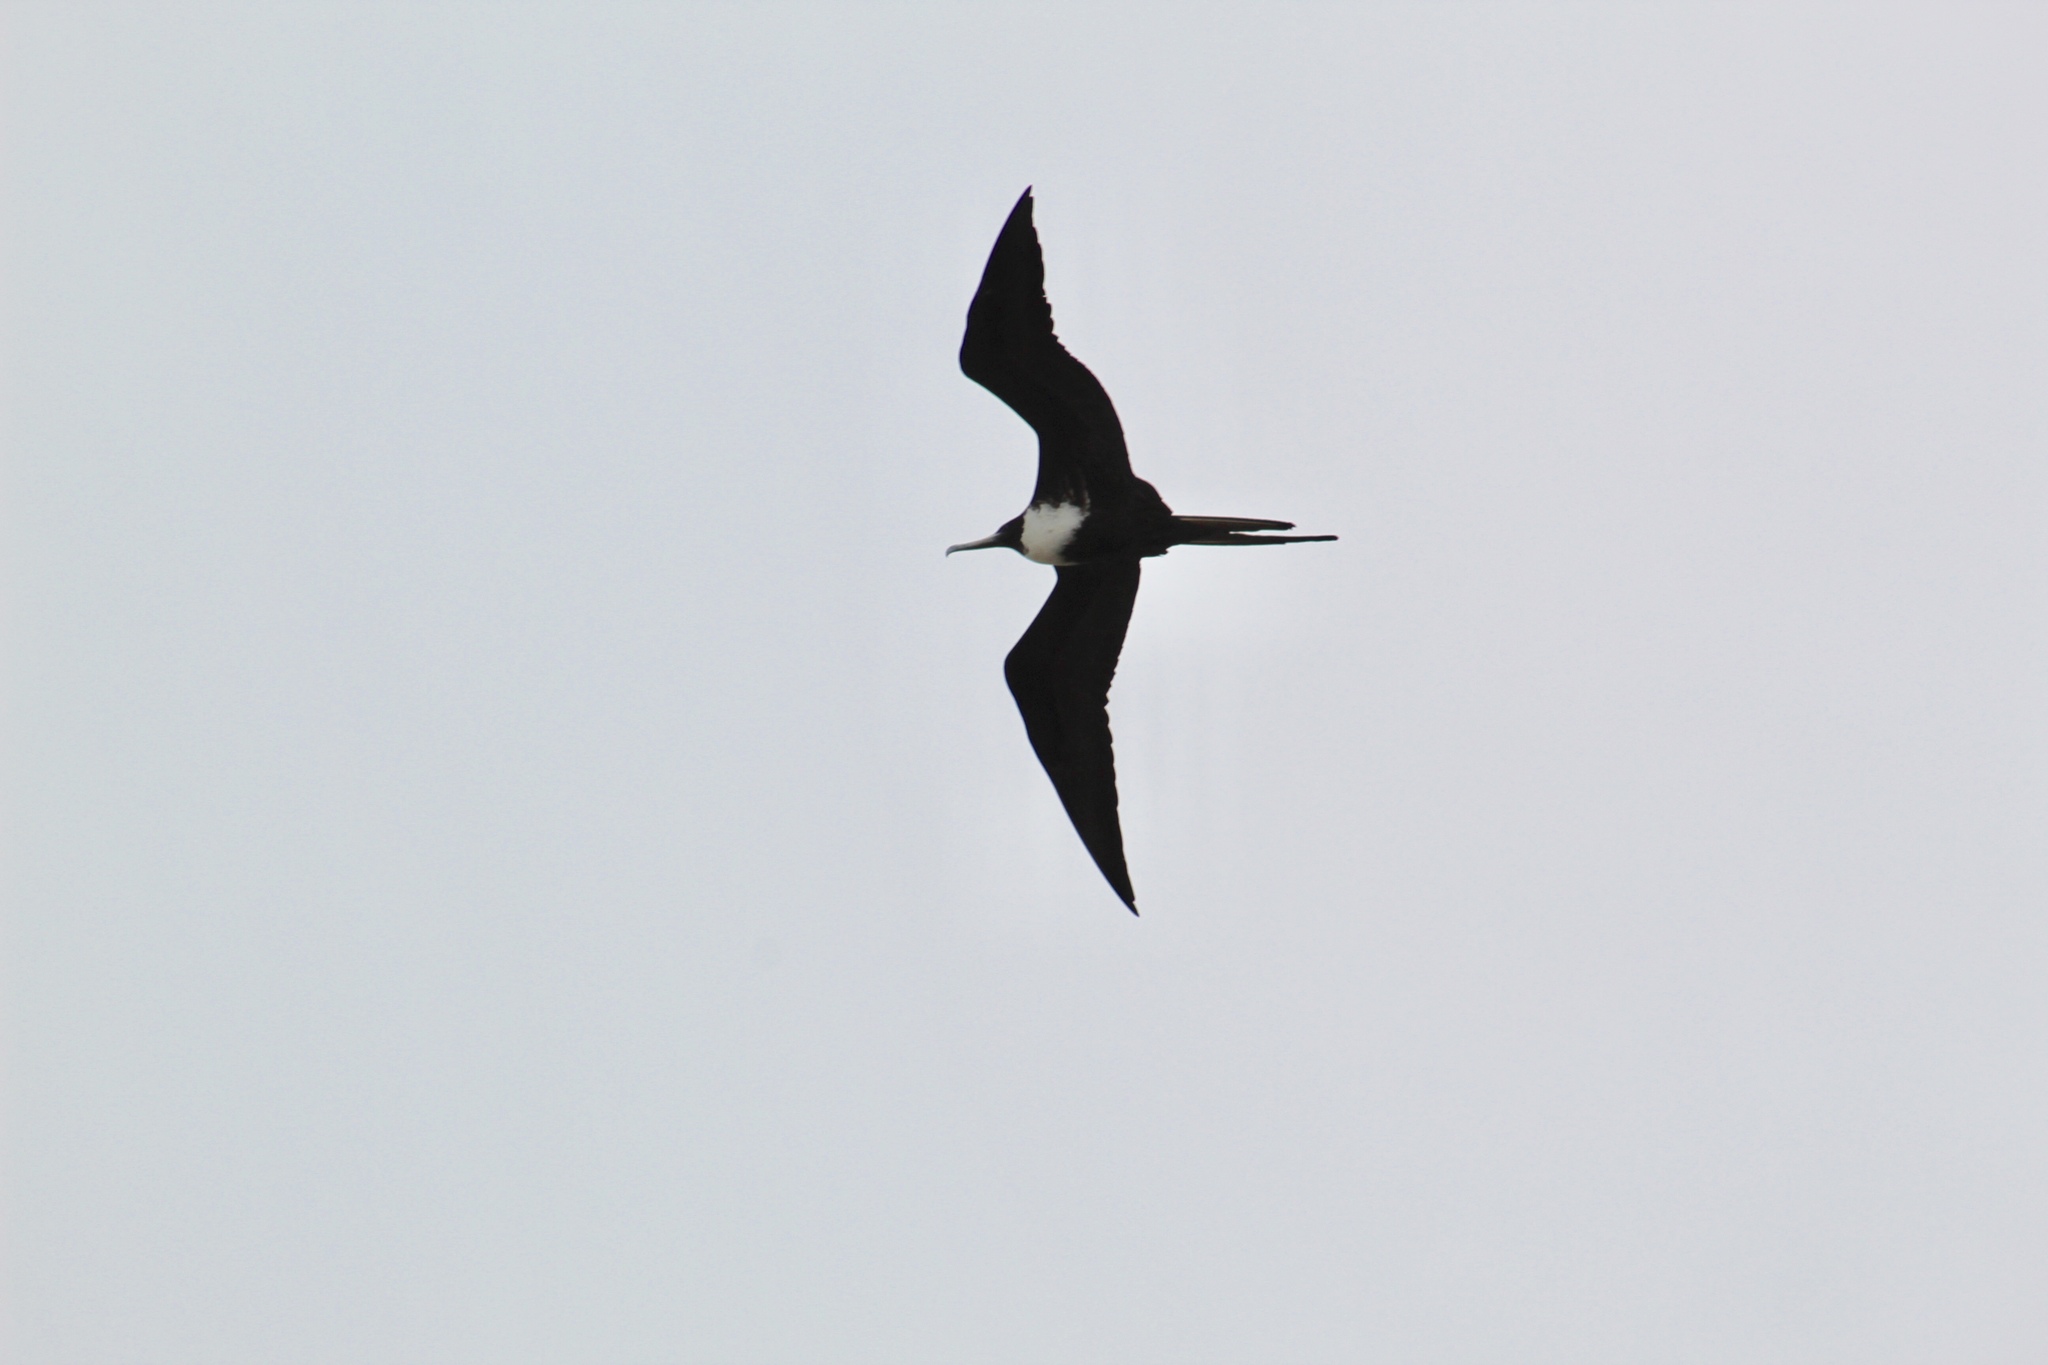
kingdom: Animalia
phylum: Chordata
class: Aves
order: Suliformes
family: Fregatidae
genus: Fregata
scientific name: Fregata magnificens
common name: Magnificent frigatebird
